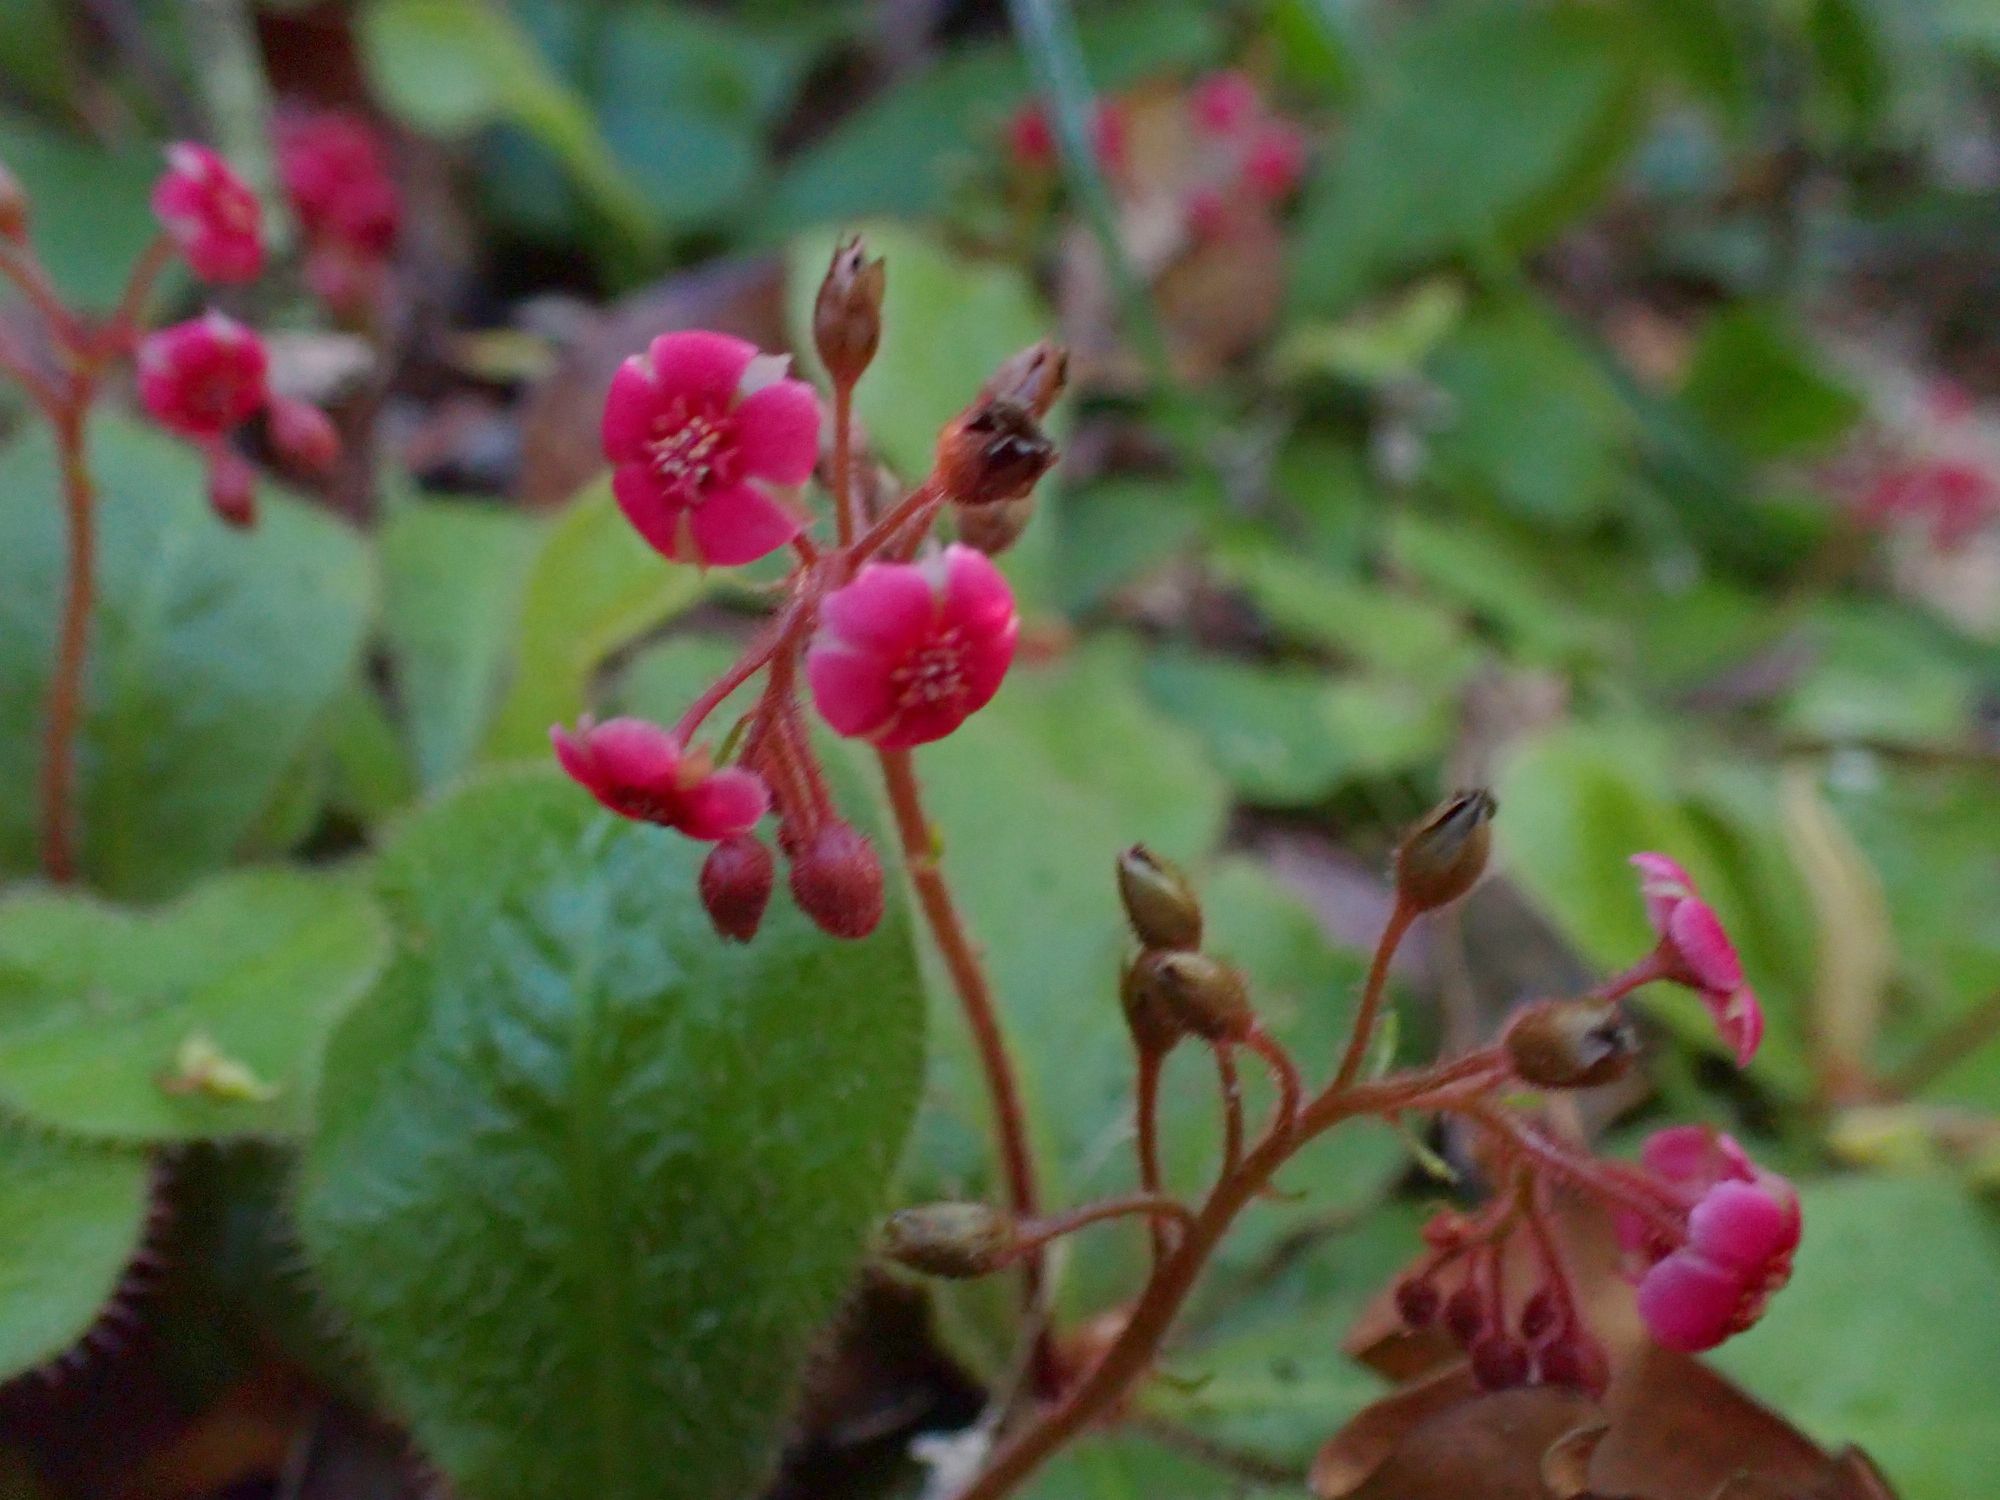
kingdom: Plantae
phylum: Tracheophyta
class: Magnoliopsida
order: Caryophyllales
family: Droseraceae
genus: Drosera
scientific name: Drosera schizandra
